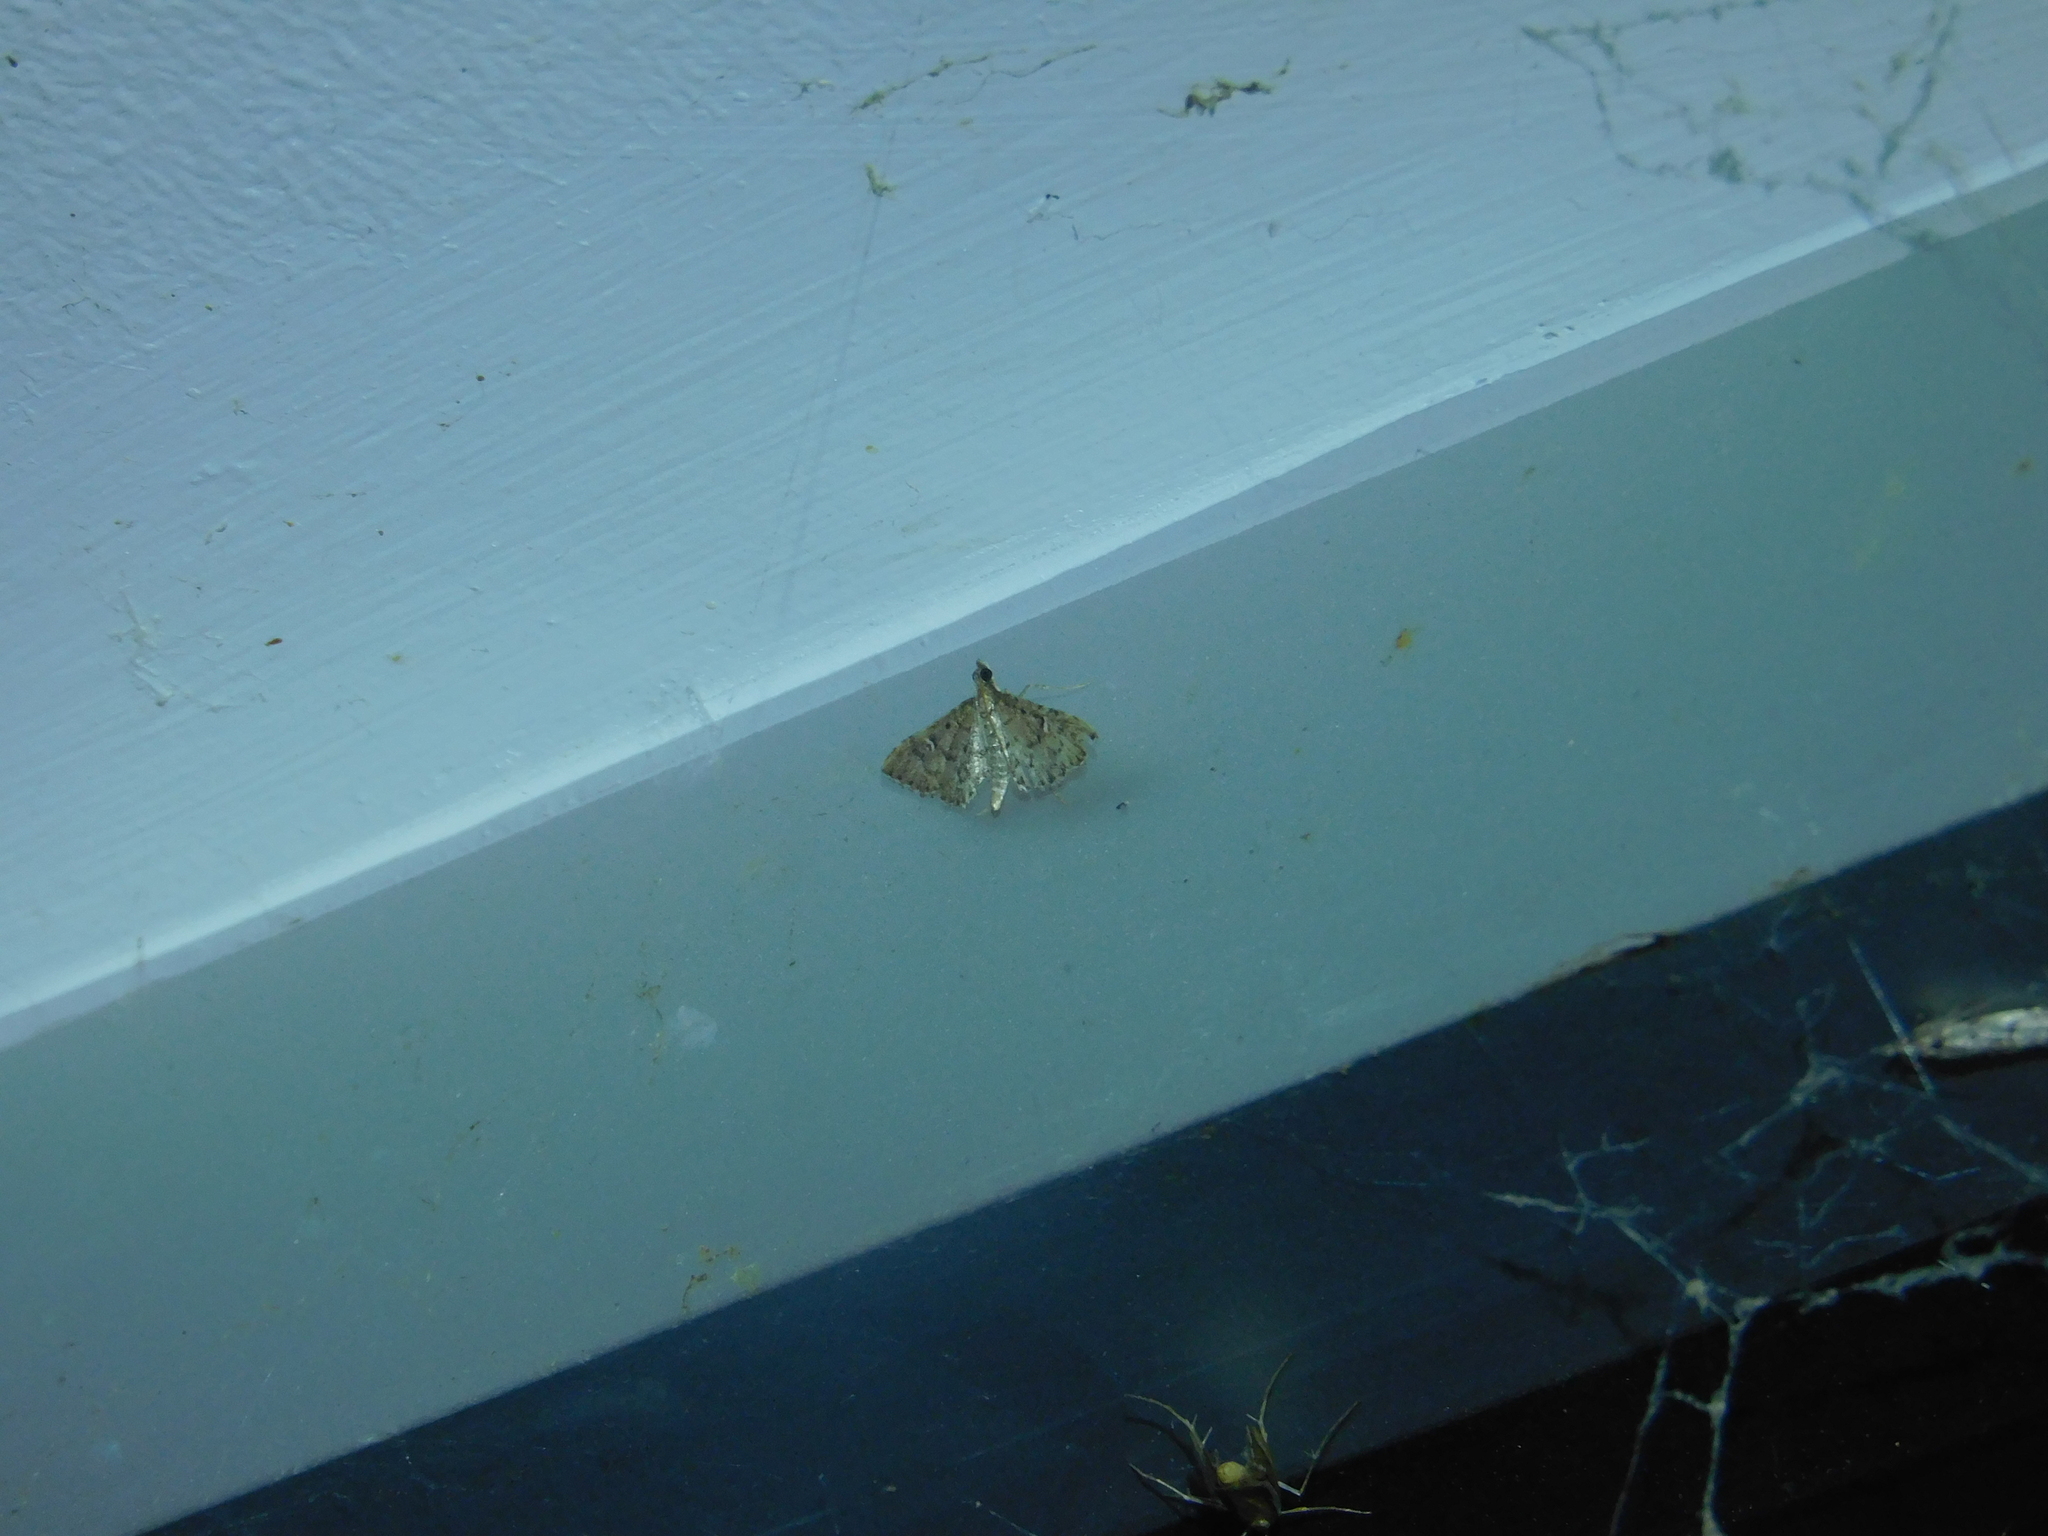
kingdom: Animalia
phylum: Arthropoda
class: Insecta
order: Lepidoptera
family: Crambidae
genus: Metasia
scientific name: Metasia capnochroa
